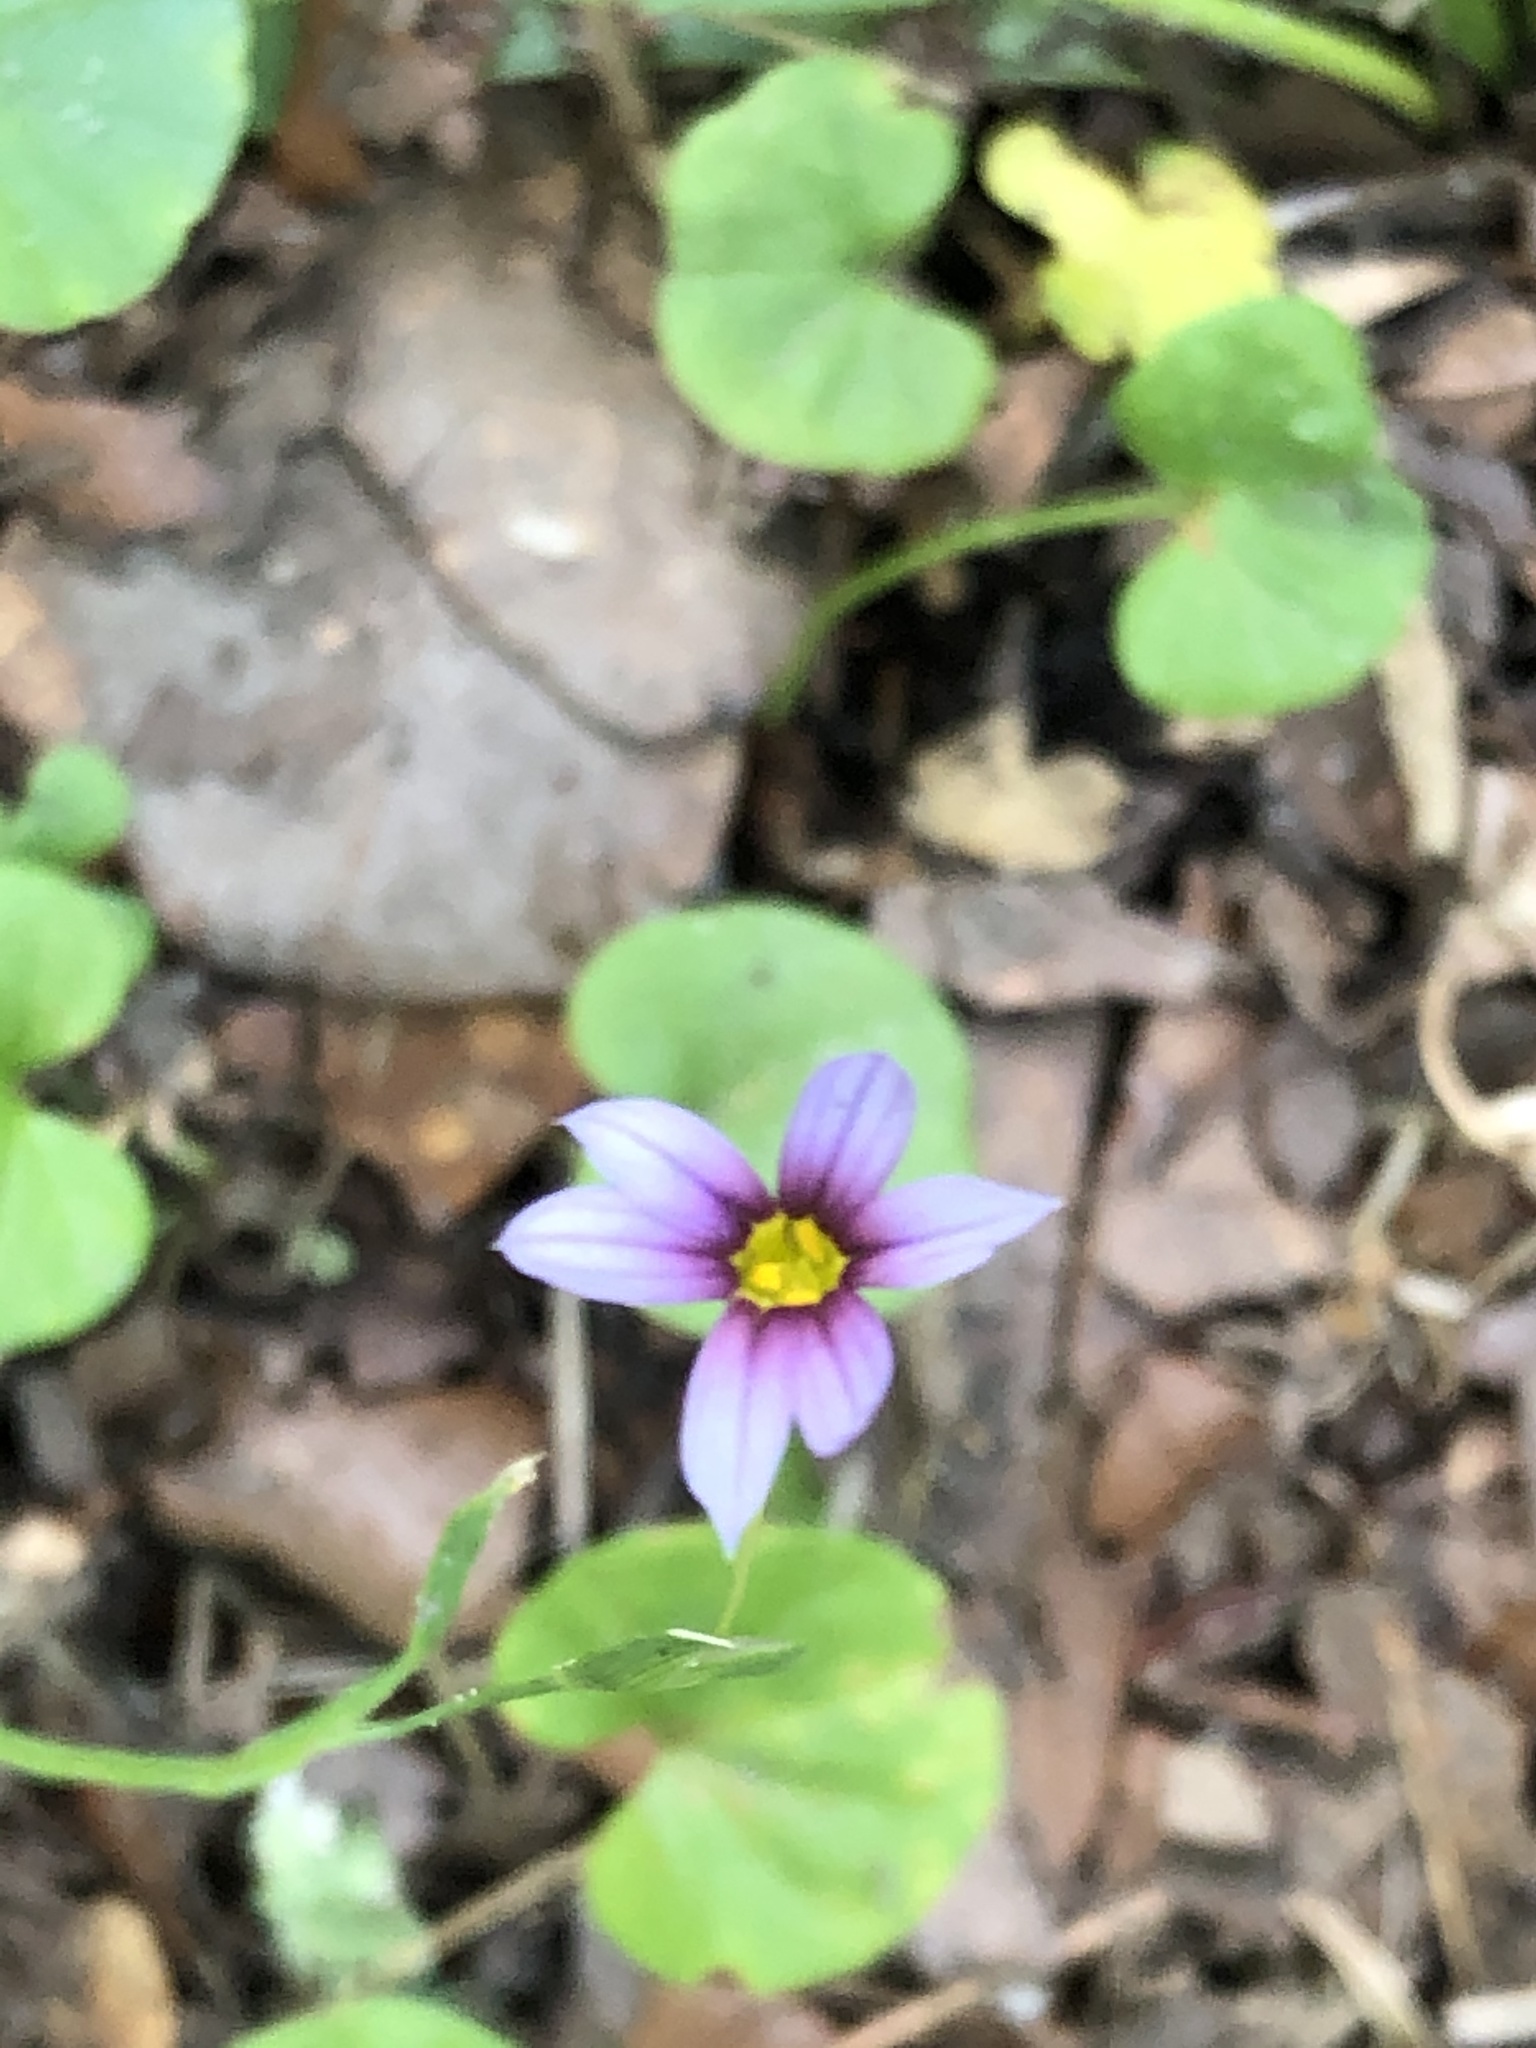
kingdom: Plantae
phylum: Tracheophyta
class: Liliopsida
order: Asparagales
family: Iridaceae
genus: Sisyrinchium
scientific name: Sisyrinchium micranthum
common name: Bermuda pigroot
